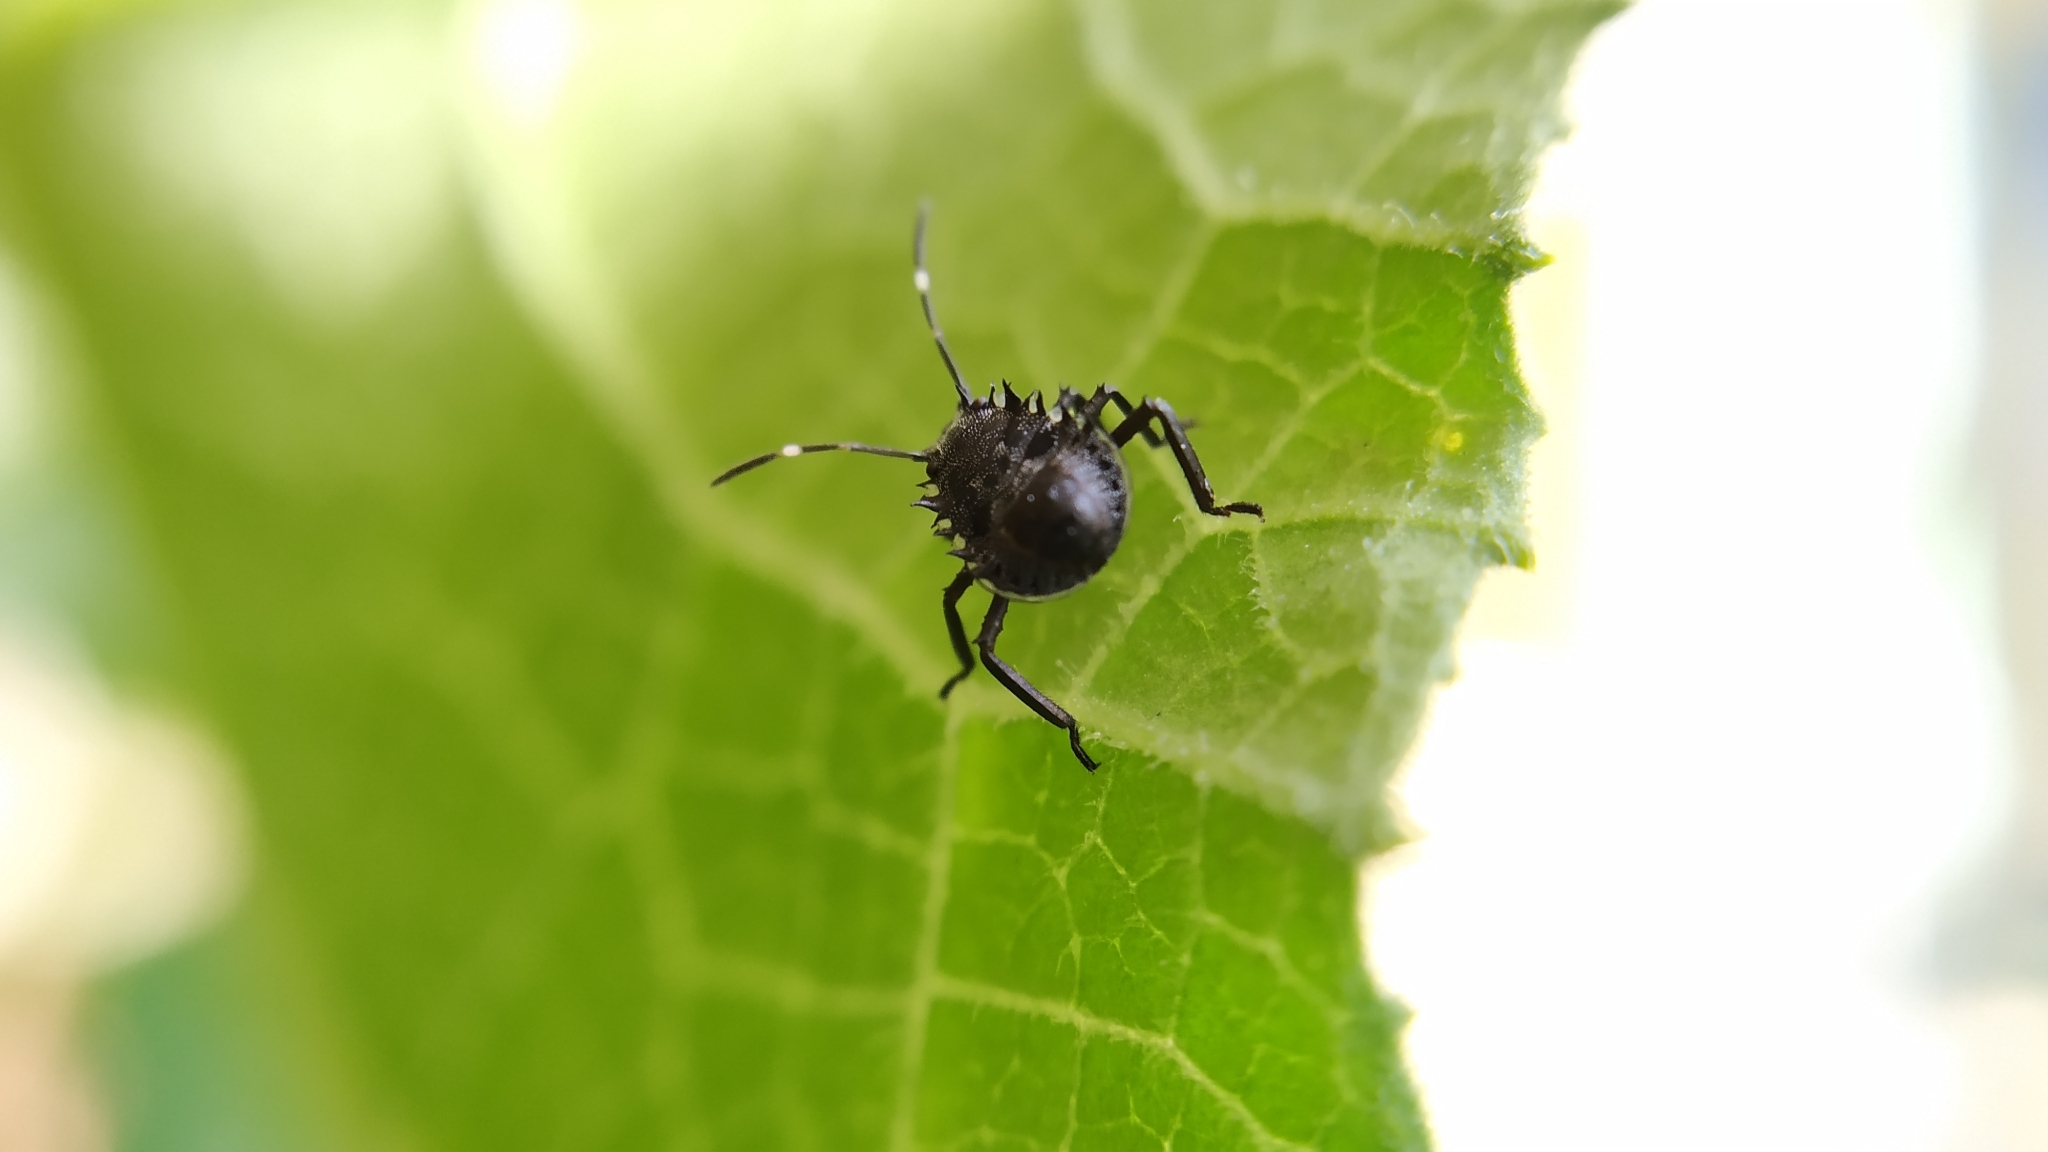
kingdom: Animalia
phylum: Arthropoda
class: Insecta
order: Hemiptera
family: Pentatomidae
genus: Halyomorpha
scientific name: Halyomorpha halys
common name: Brown marmorated stink bug
